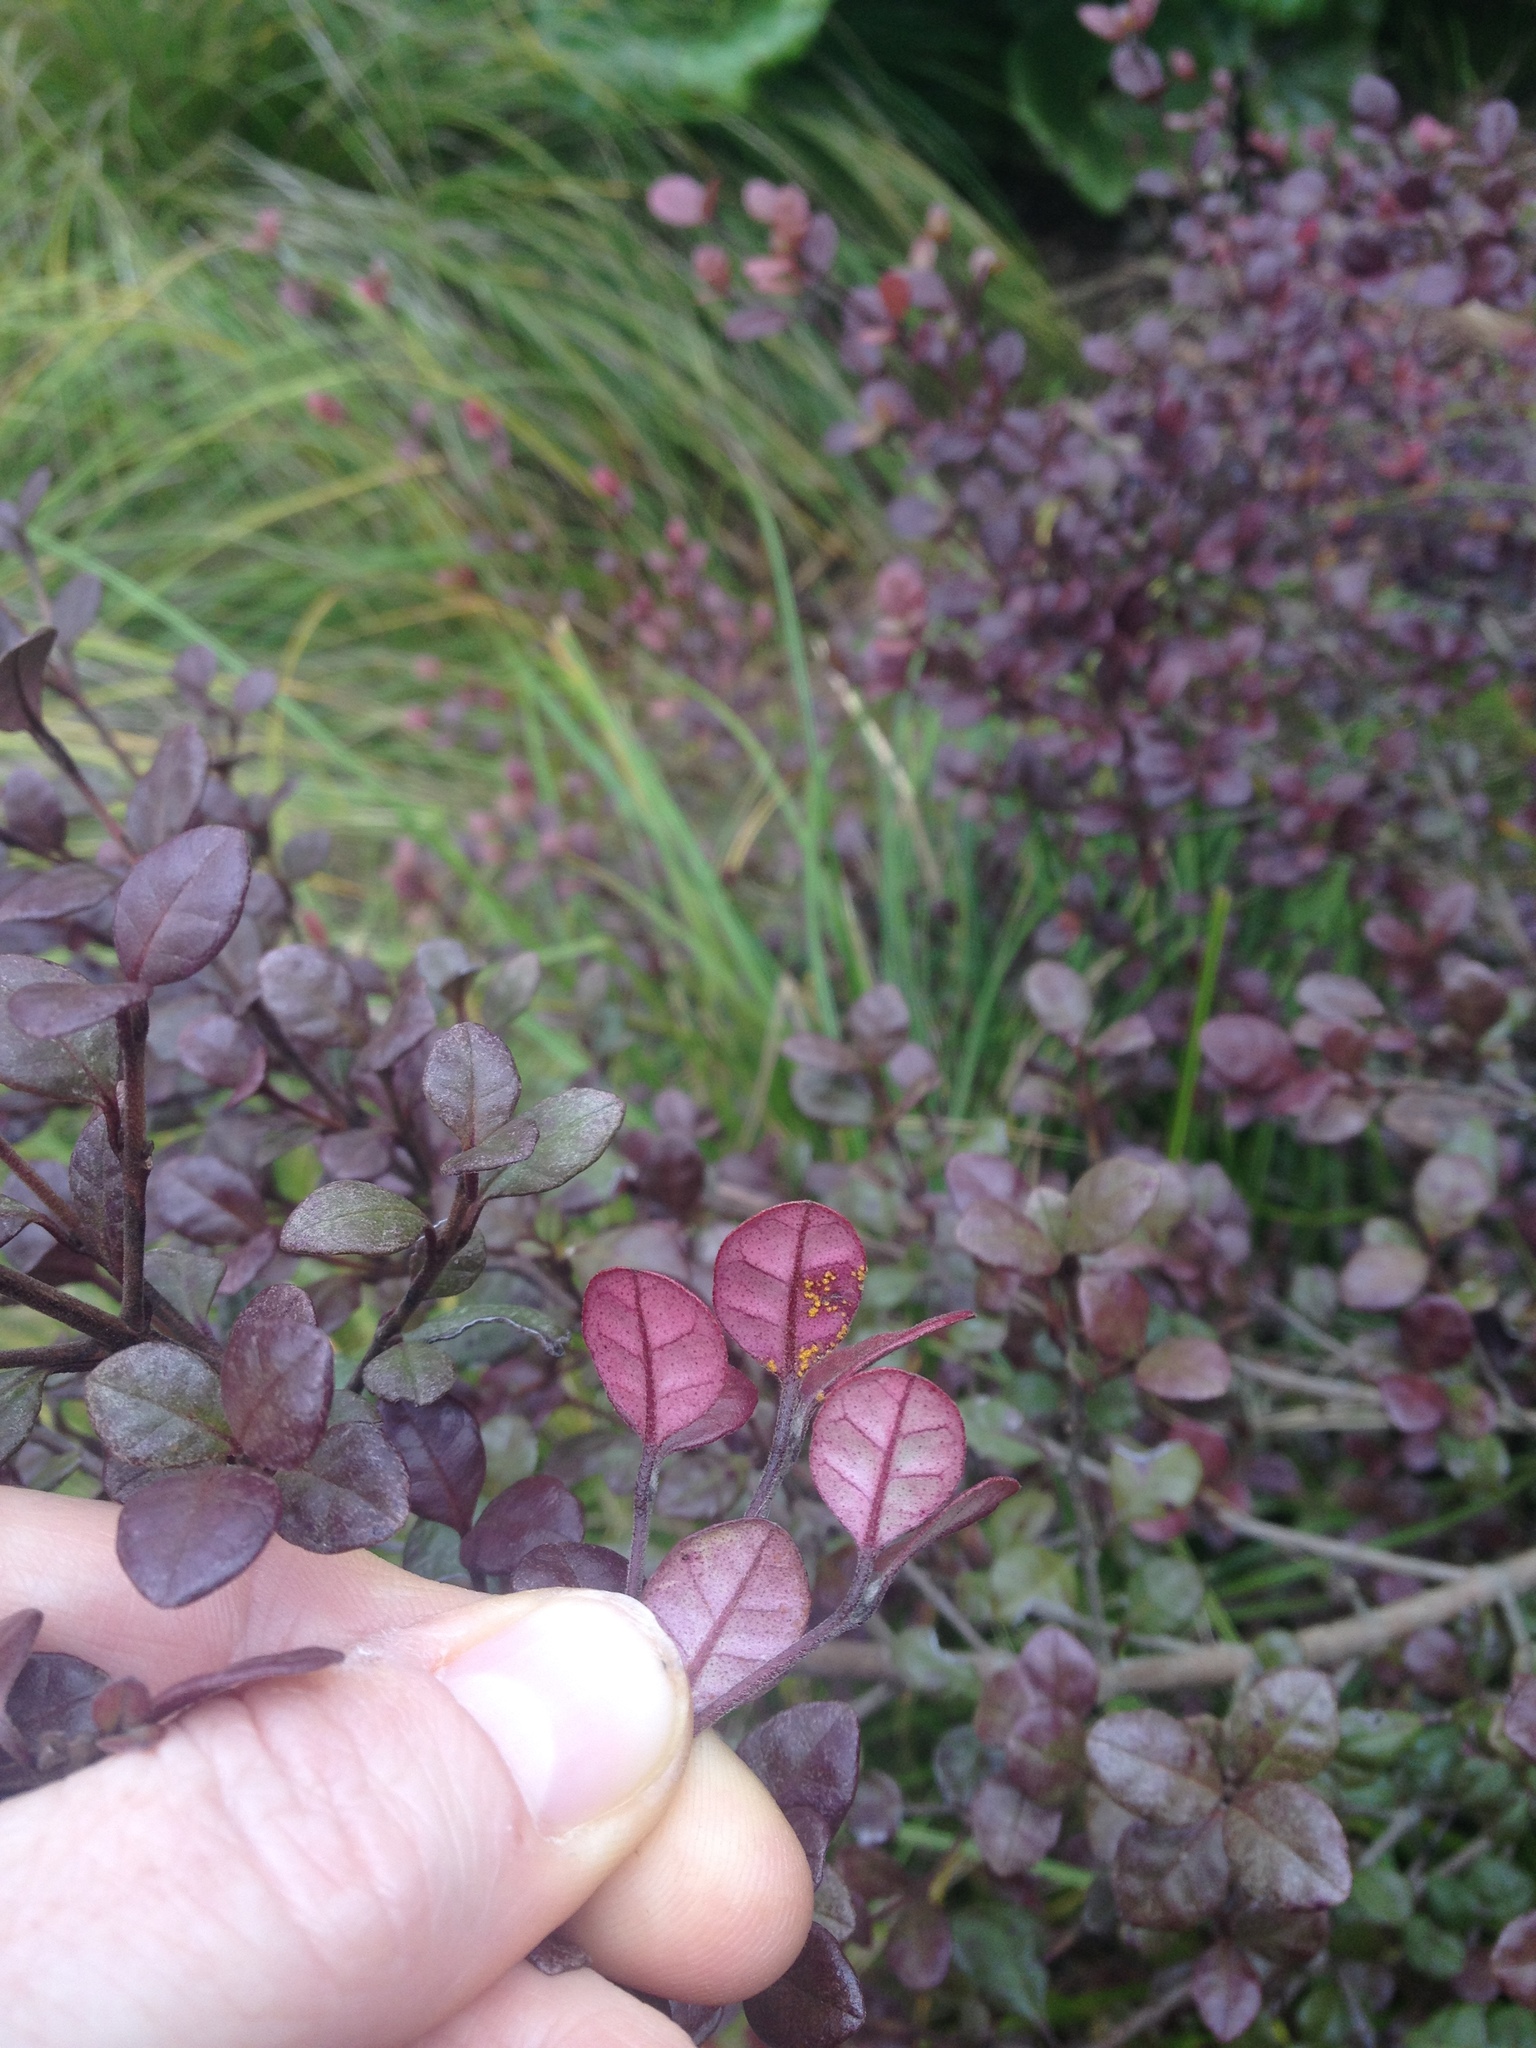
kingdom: Fungi
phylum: Basidiomycota
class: Pucciniomycetes
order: Pucciniales
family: Sphaerophragmiaceae
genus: Austropuccinia
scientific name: Austropuccinia psidii
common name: Myrtle rust
